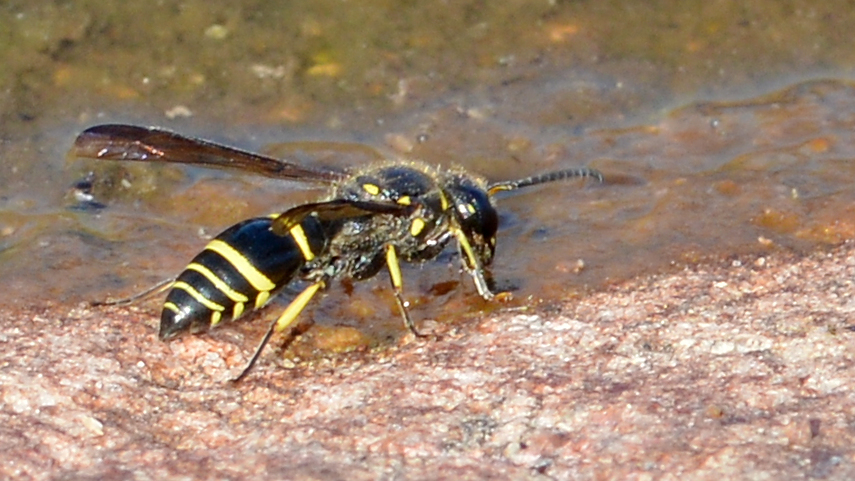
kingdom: Animalia
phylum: Arthropoda
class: Insecta
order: Hymenoptera
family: Vespidae
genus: Ancistrocerus
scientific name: Ancistrocerus
